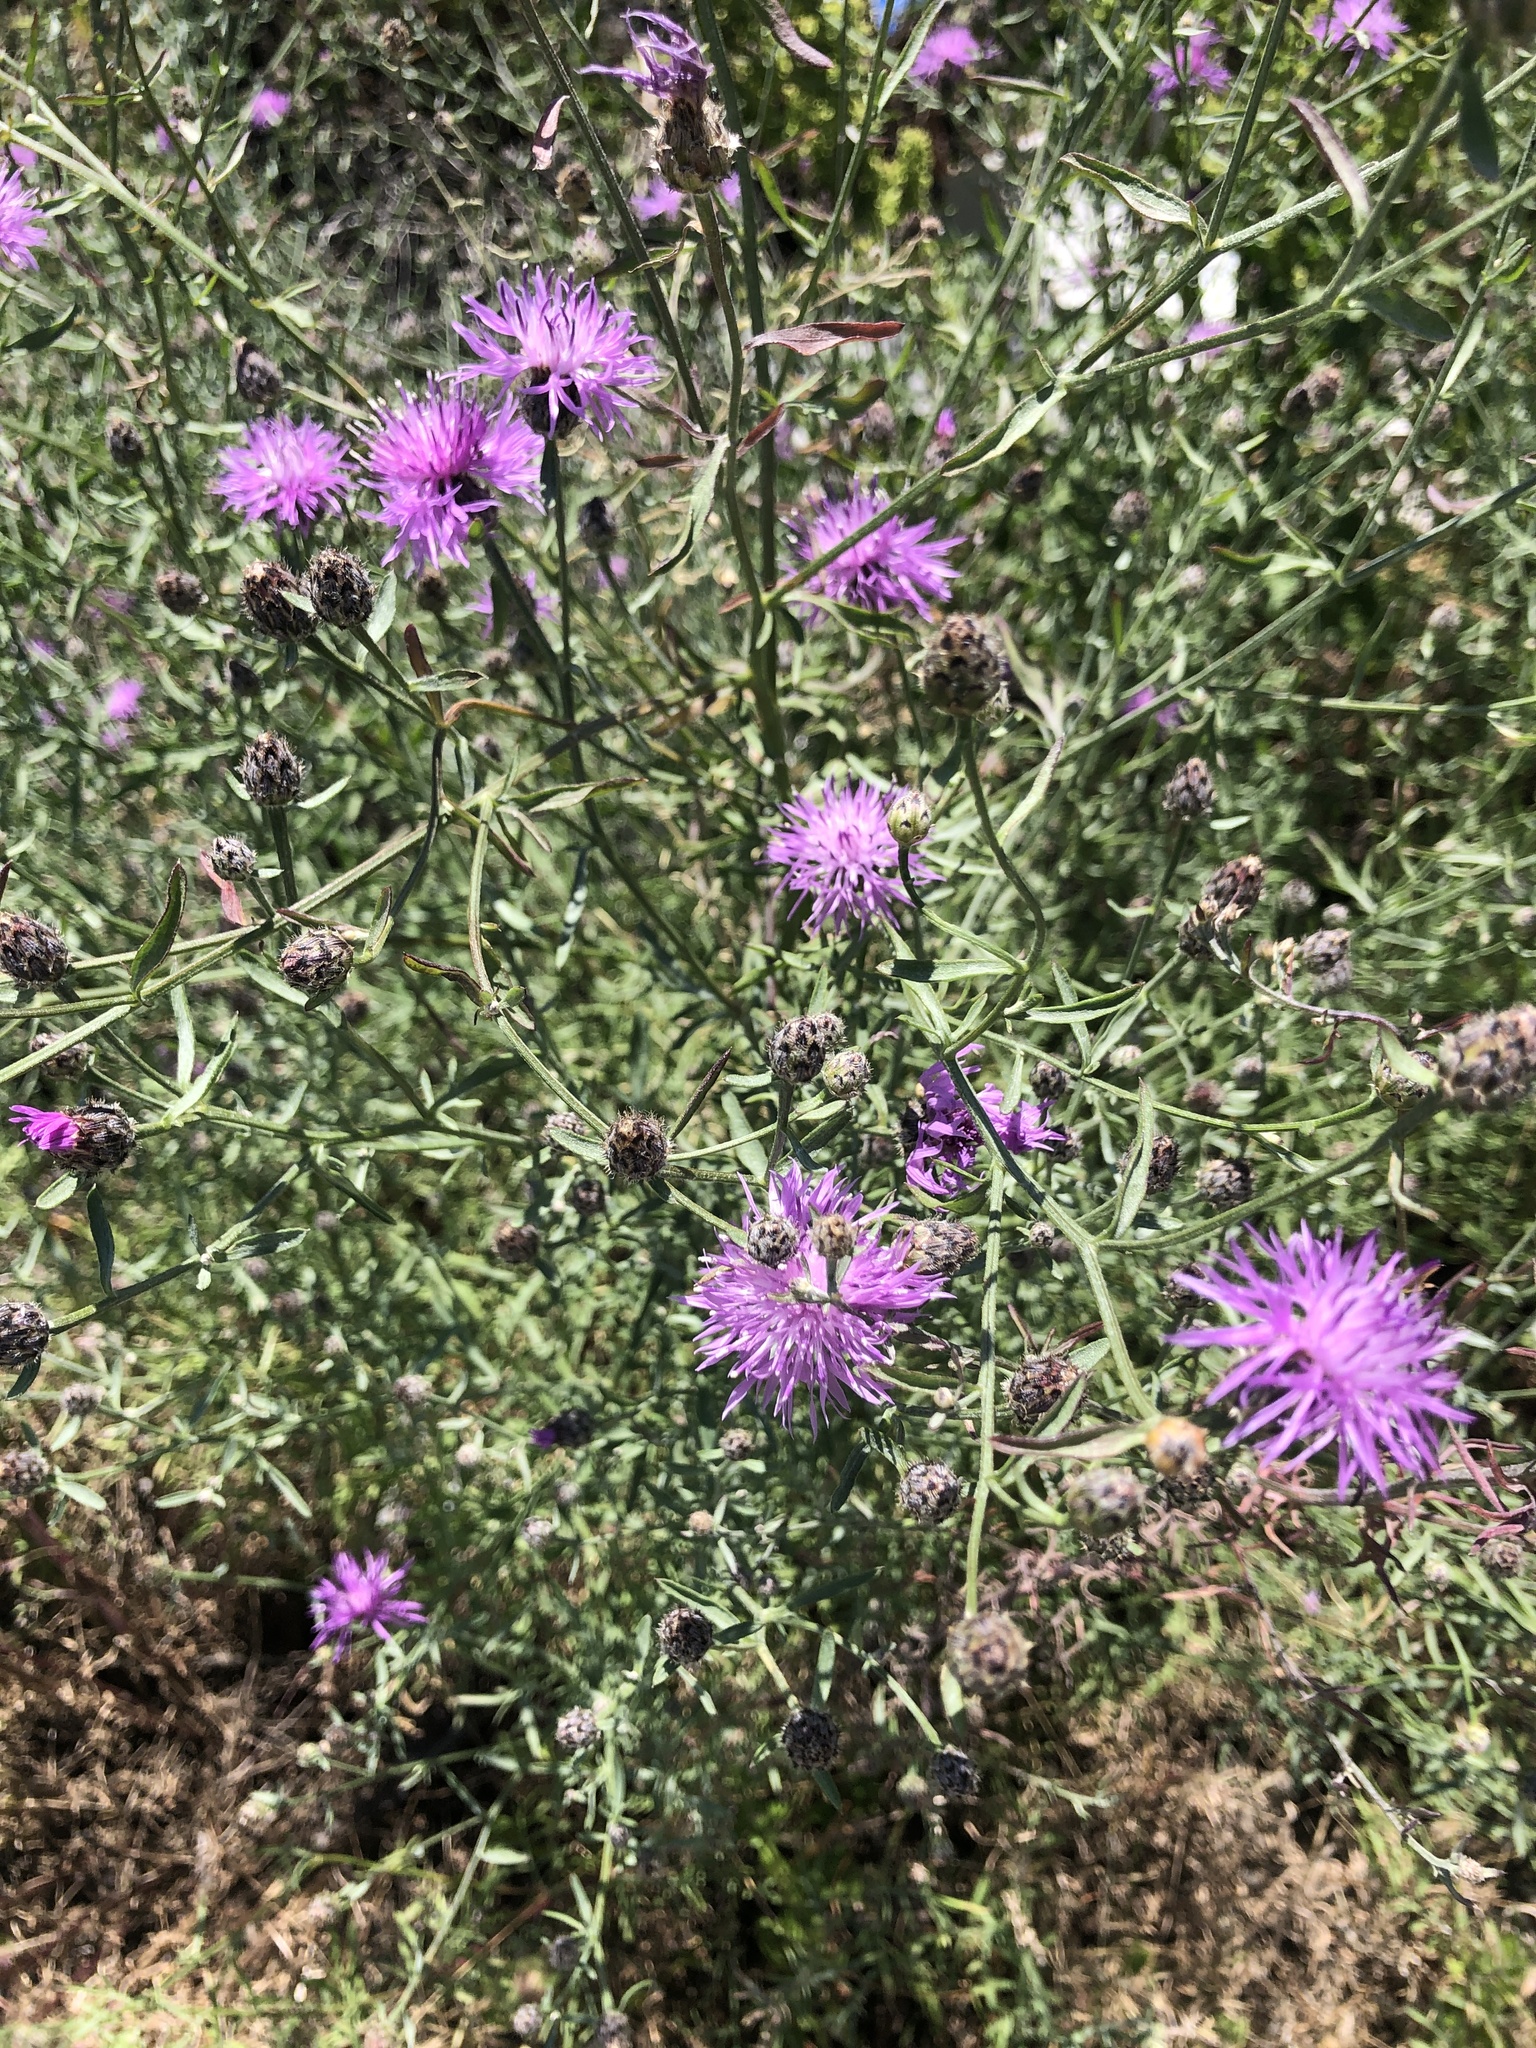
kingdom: Plantae
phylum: Tracheophyta
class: Magnoliopsida
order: Asterales
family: Asteraceae
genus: Centaurea
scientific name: Centaurea stoebe
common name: Spotted knapweed
